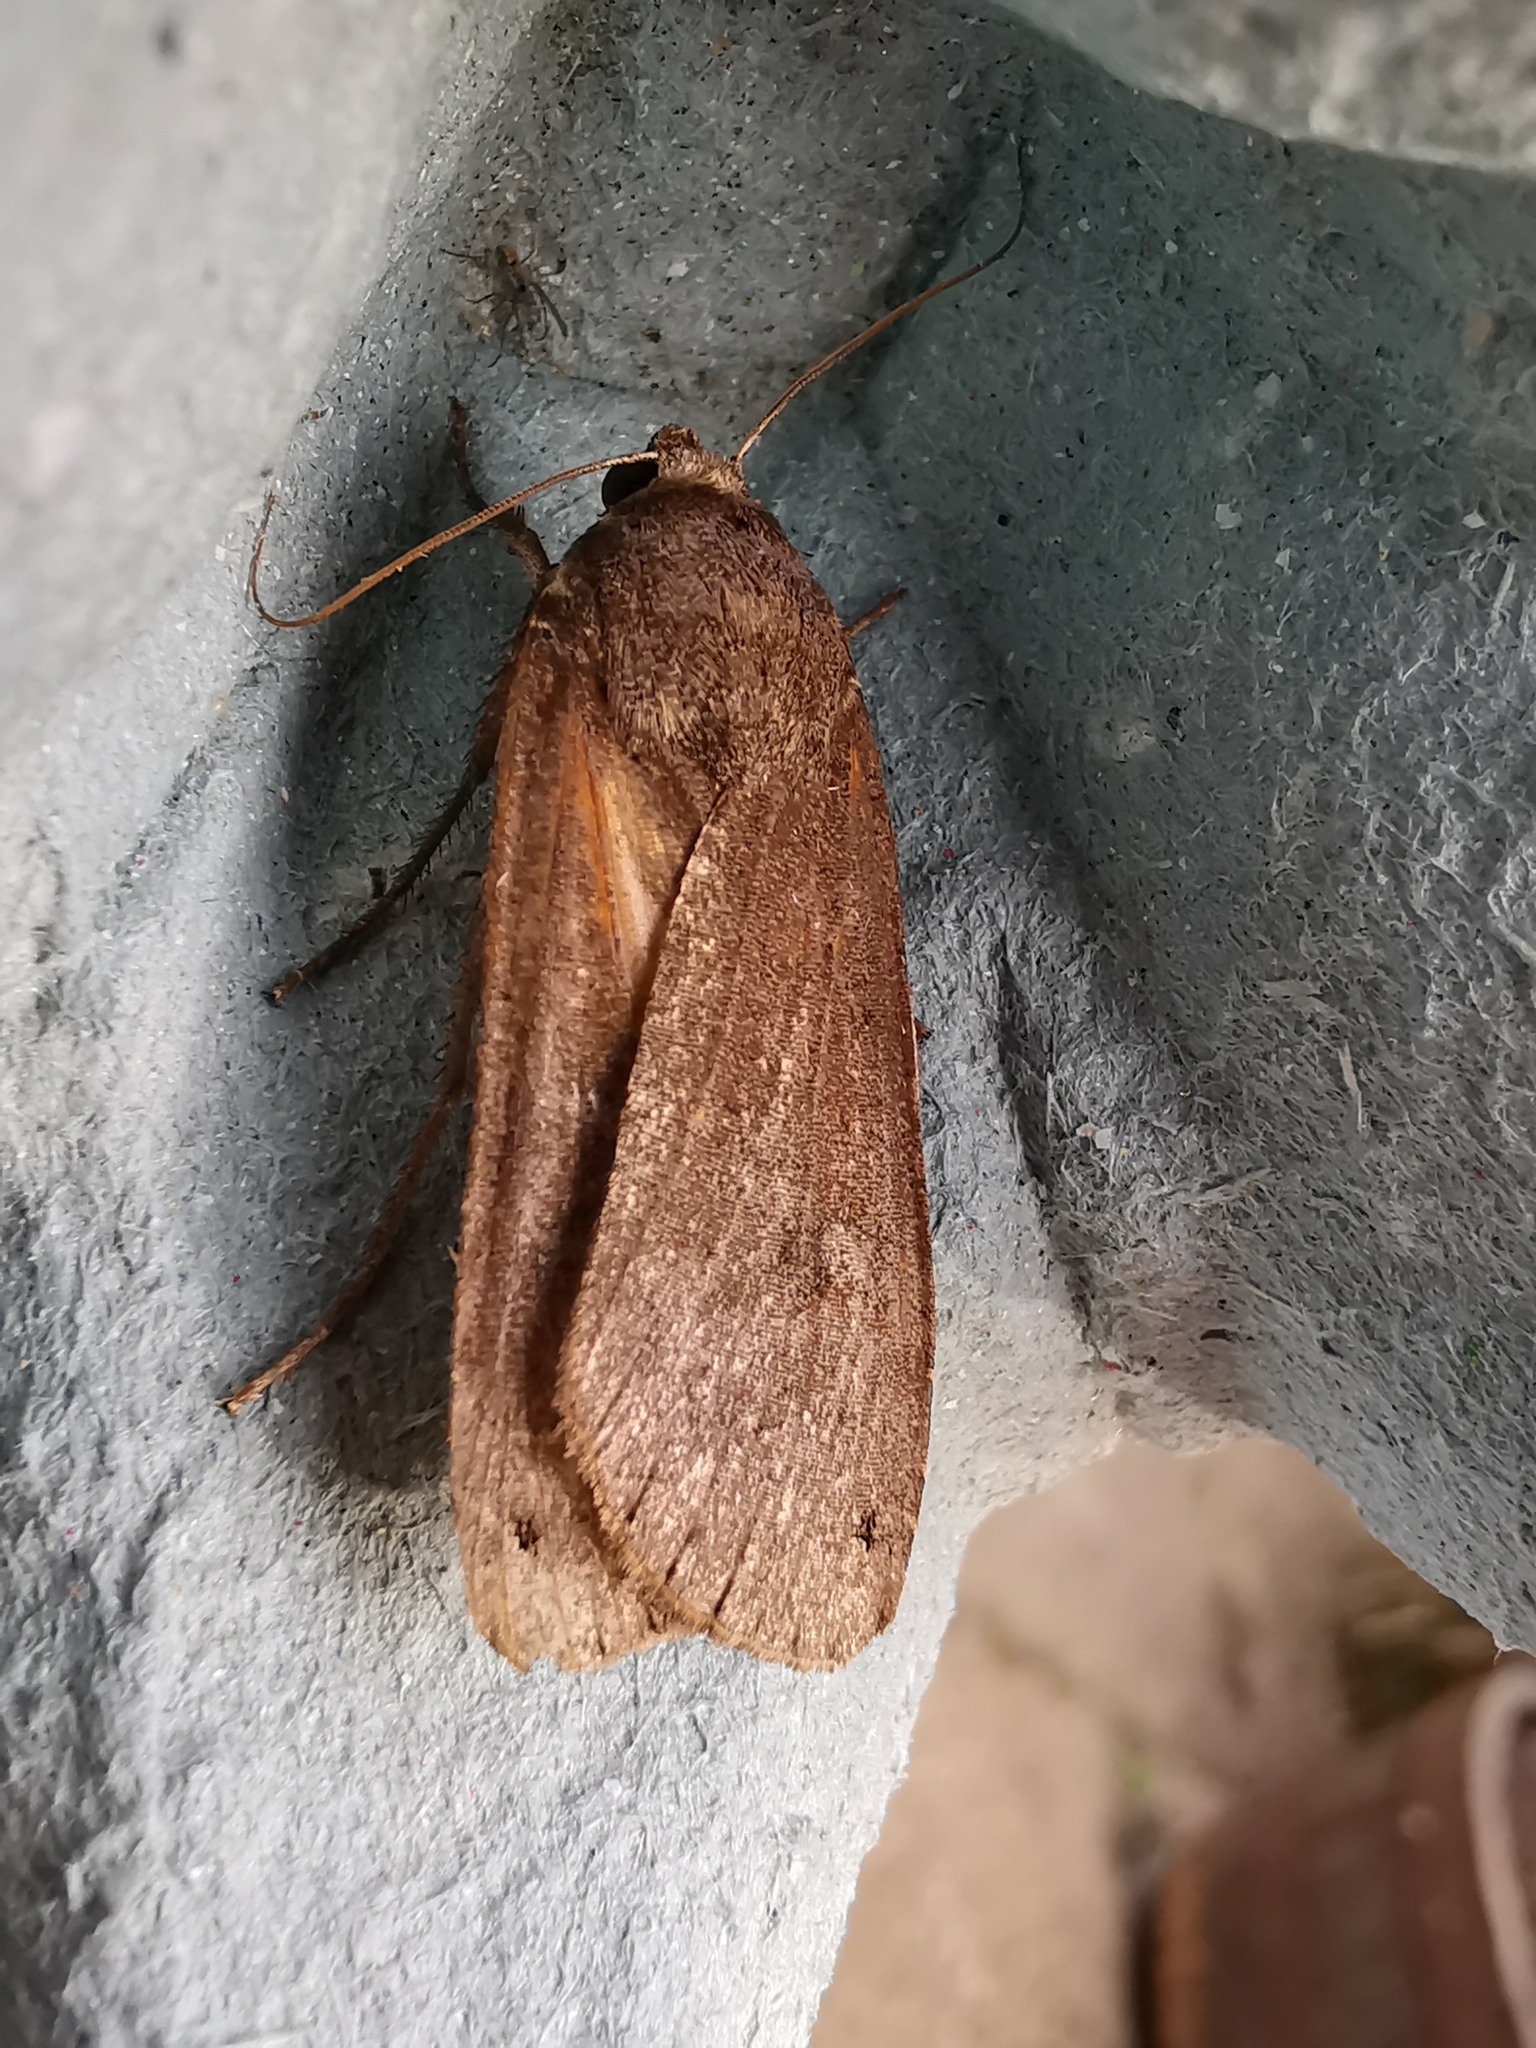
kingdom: Animalia
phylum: Arthropoda
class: Insecta
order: Lepidoptera
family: Noctuidae
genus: Noctua
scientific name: Noctua pronuba
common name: Large yellow underwing
